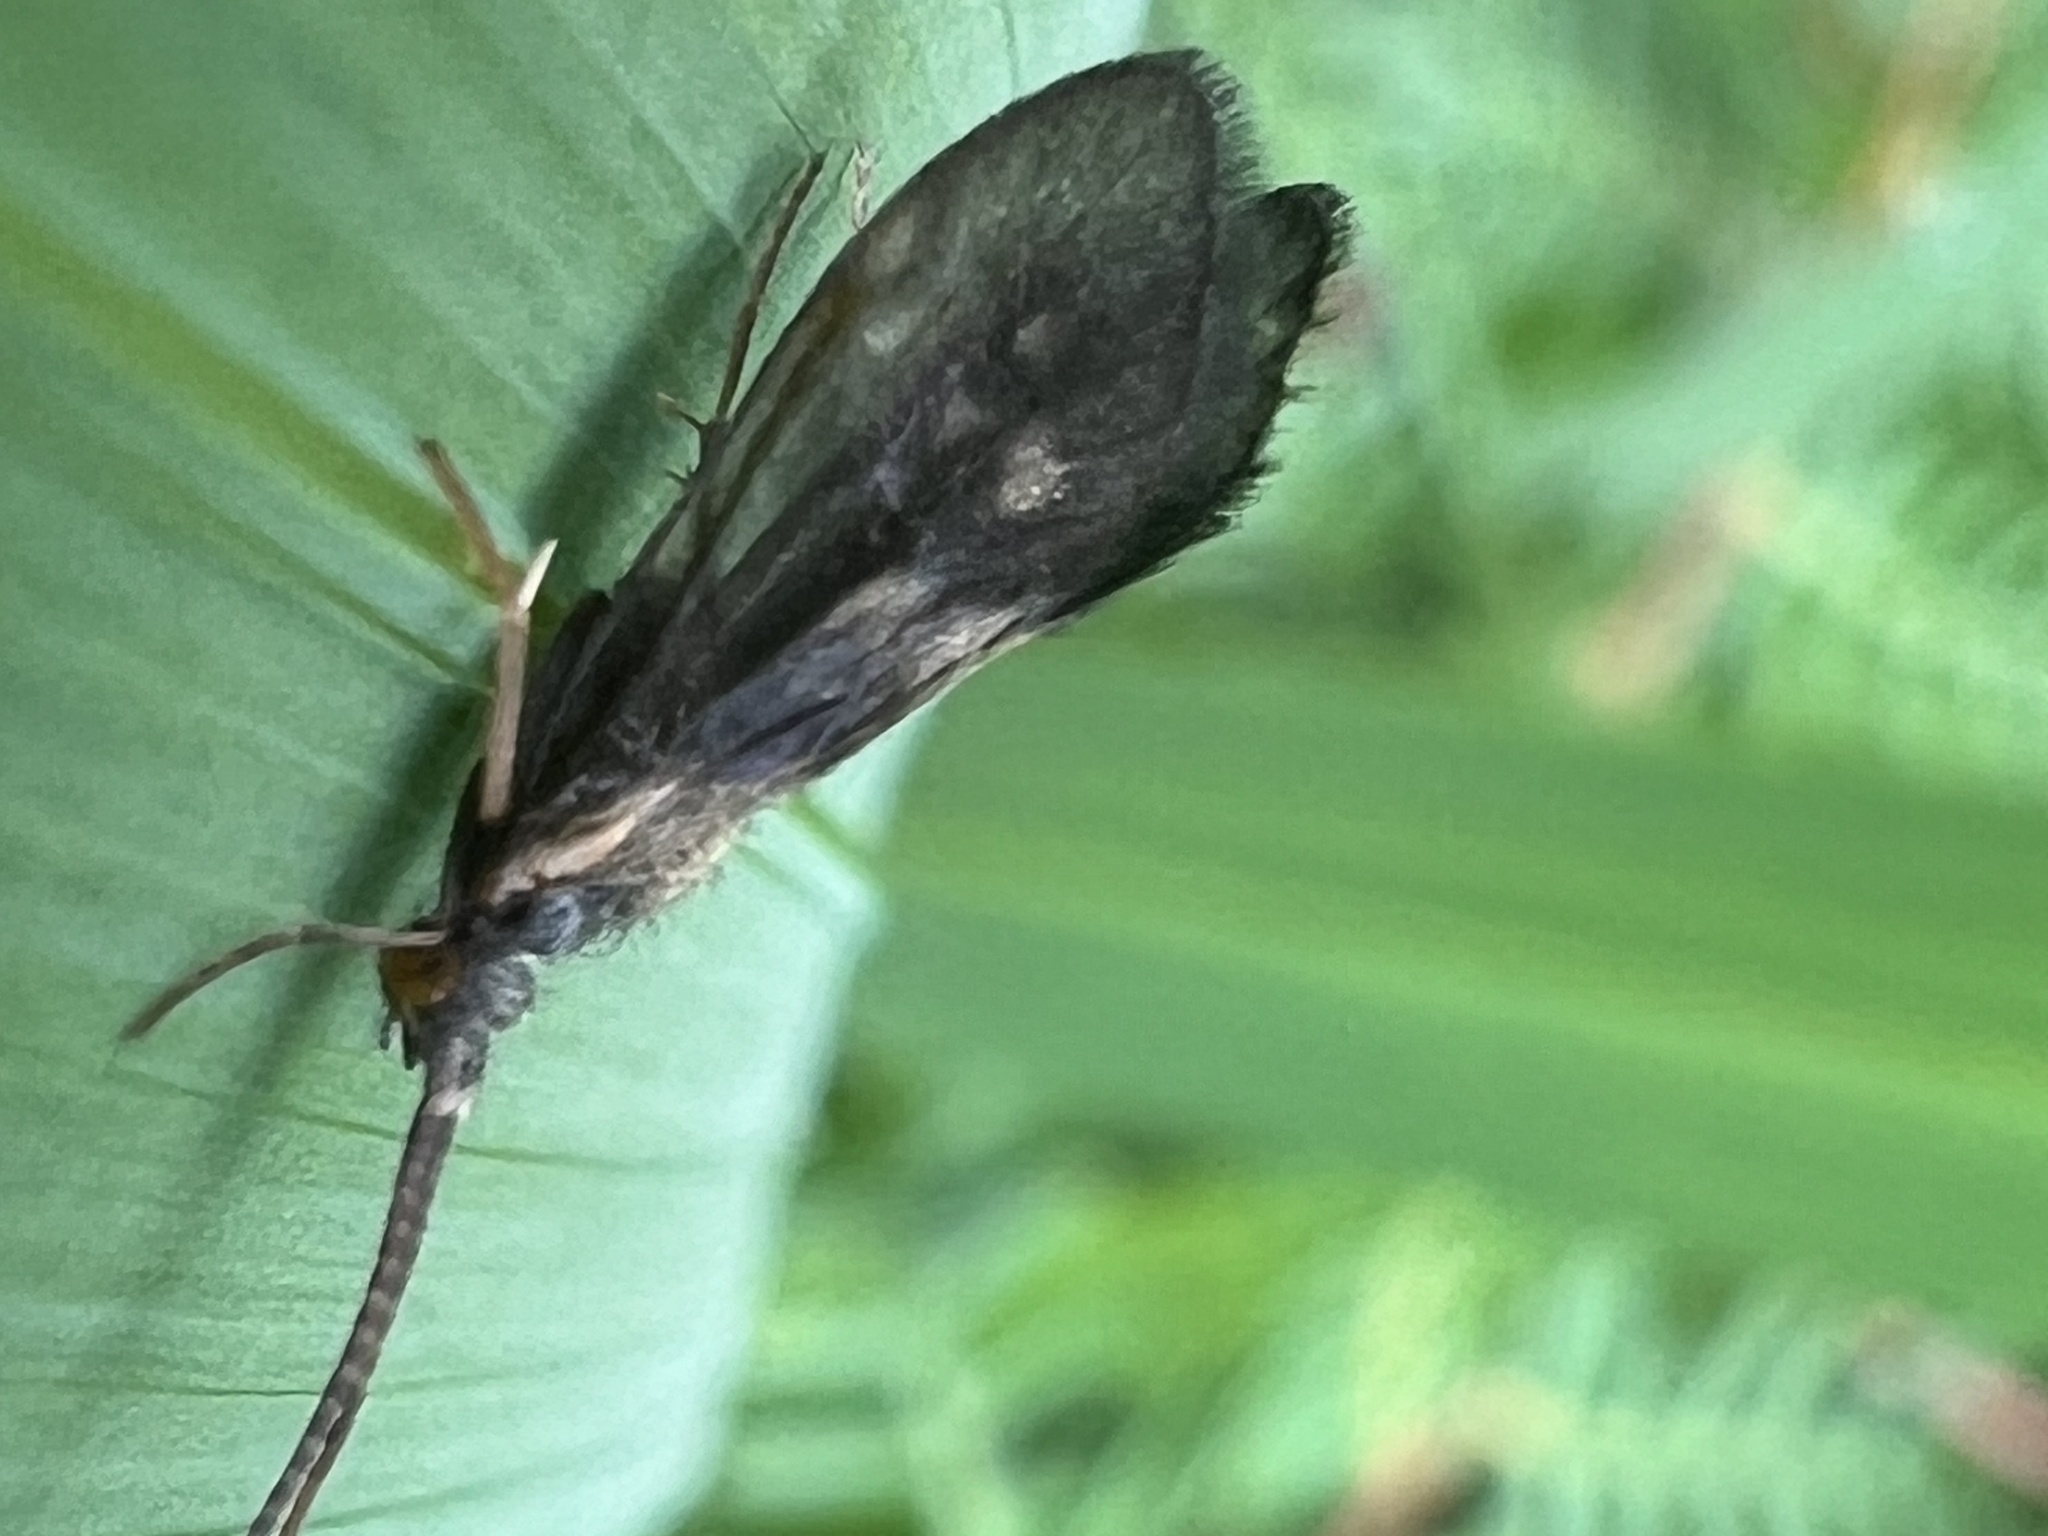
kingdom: Animalia
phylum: Arthropoda
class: Insecta
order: Trichoptera
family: Conoesucidae
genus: Pycnocentrodes
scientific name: Pycnocentrodes aureolus
